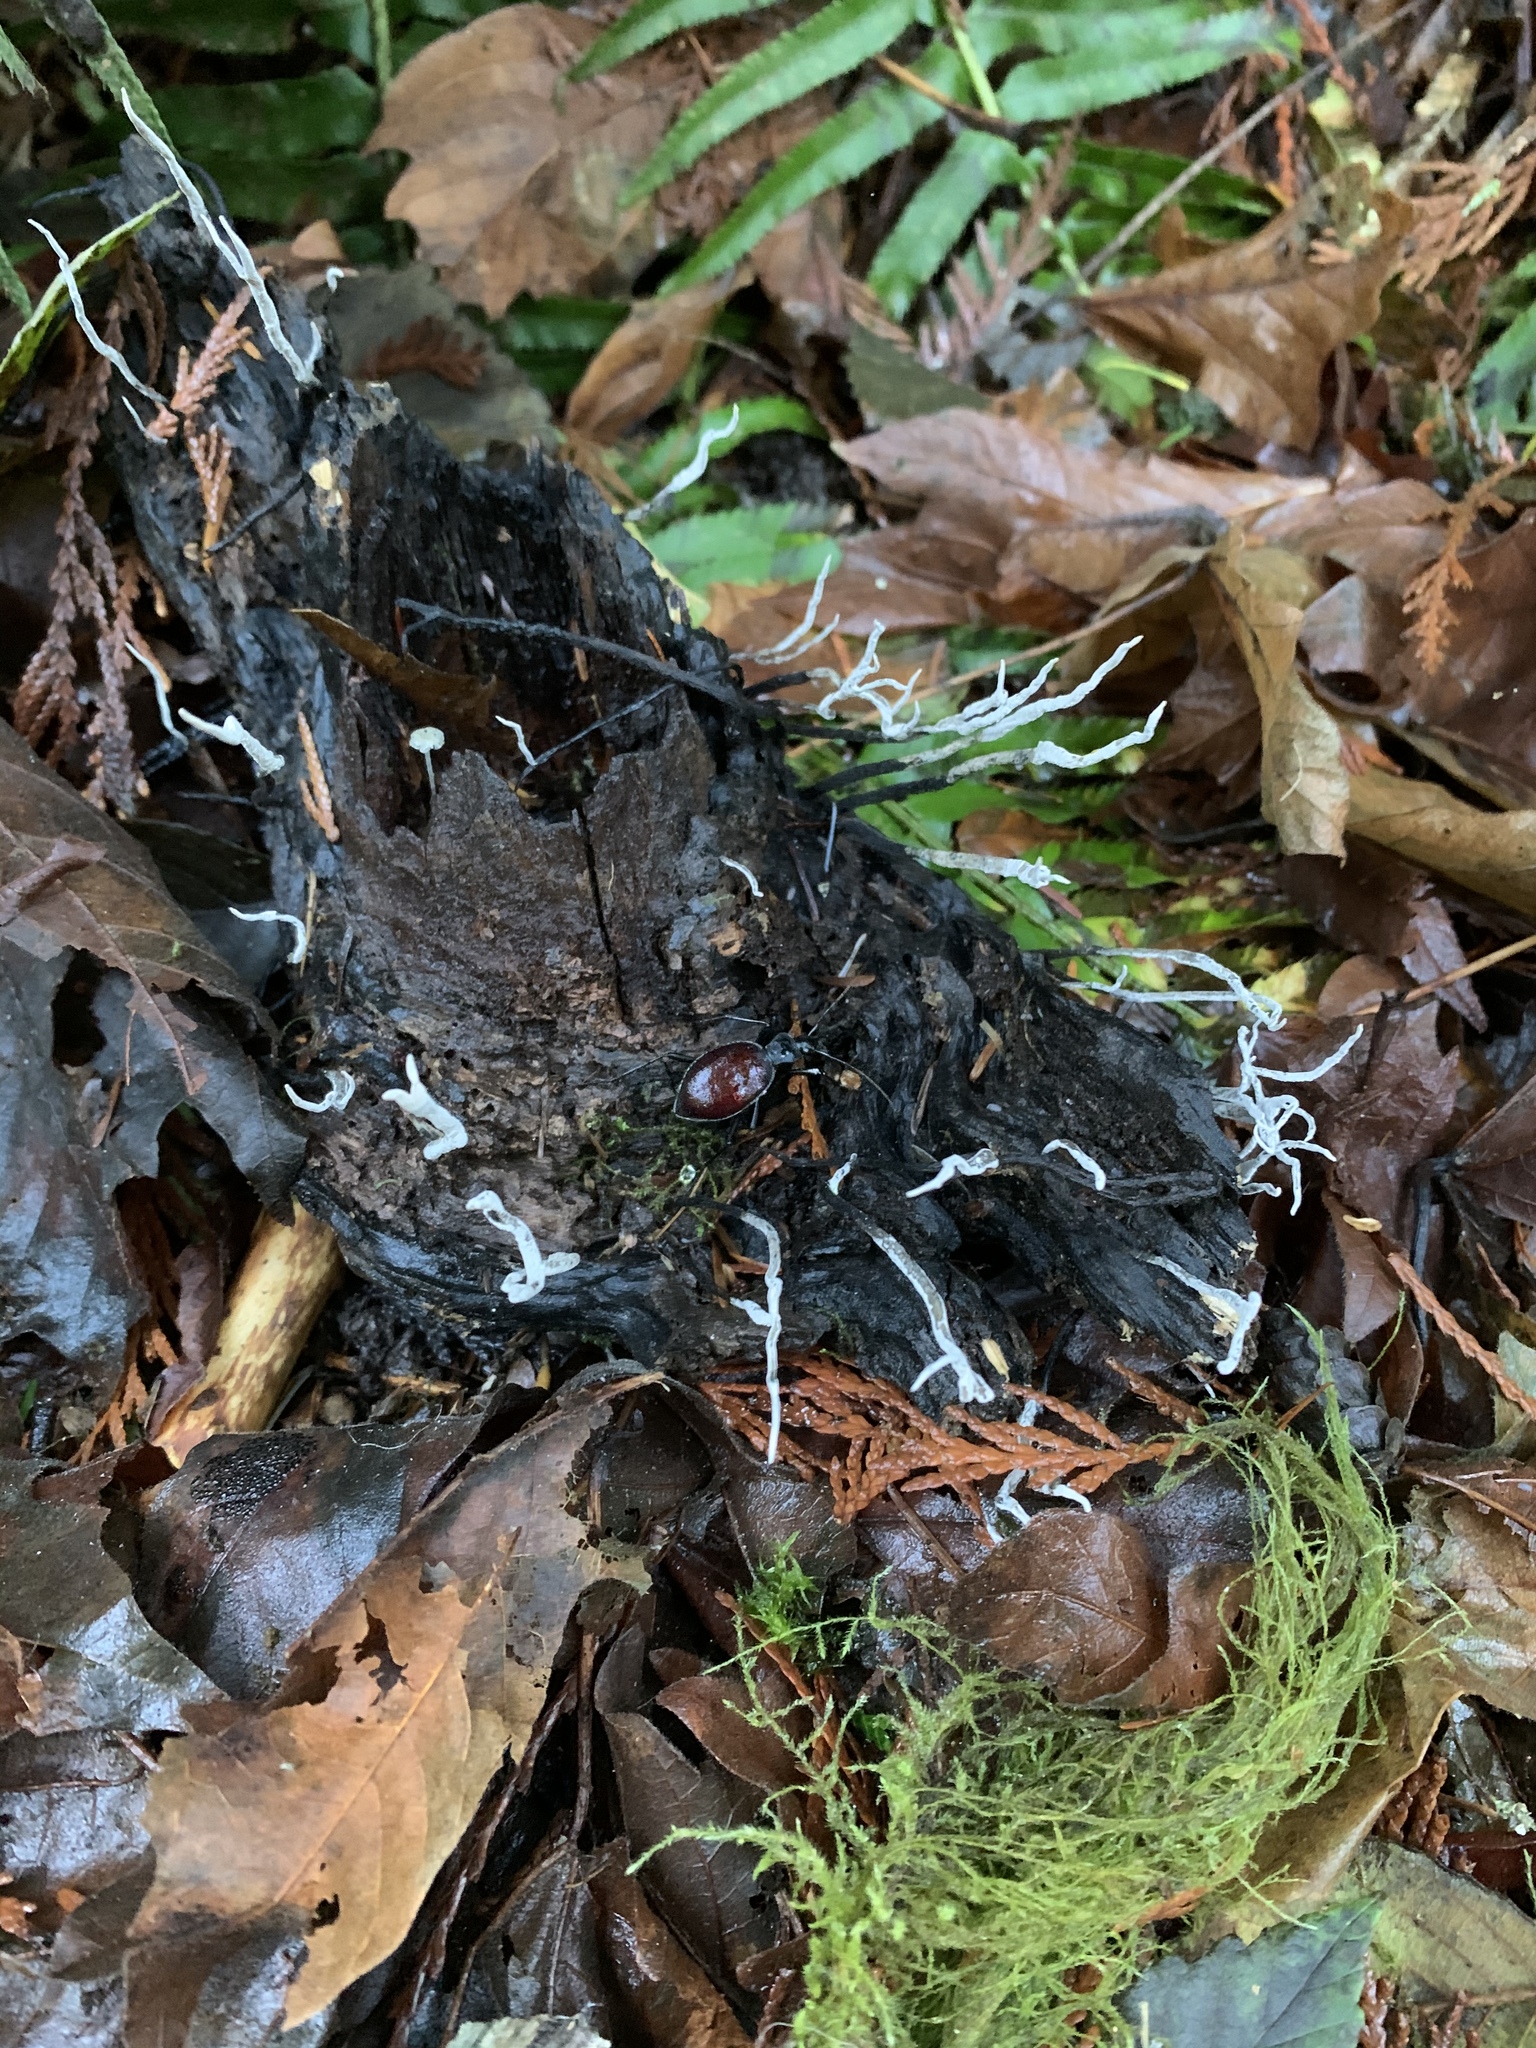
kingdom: Animalia
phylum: Arthropoda
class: Insecta
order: Coleoptera
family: Carabidae
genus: Scaphinotus
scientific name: Scaphinotus angusticollis
